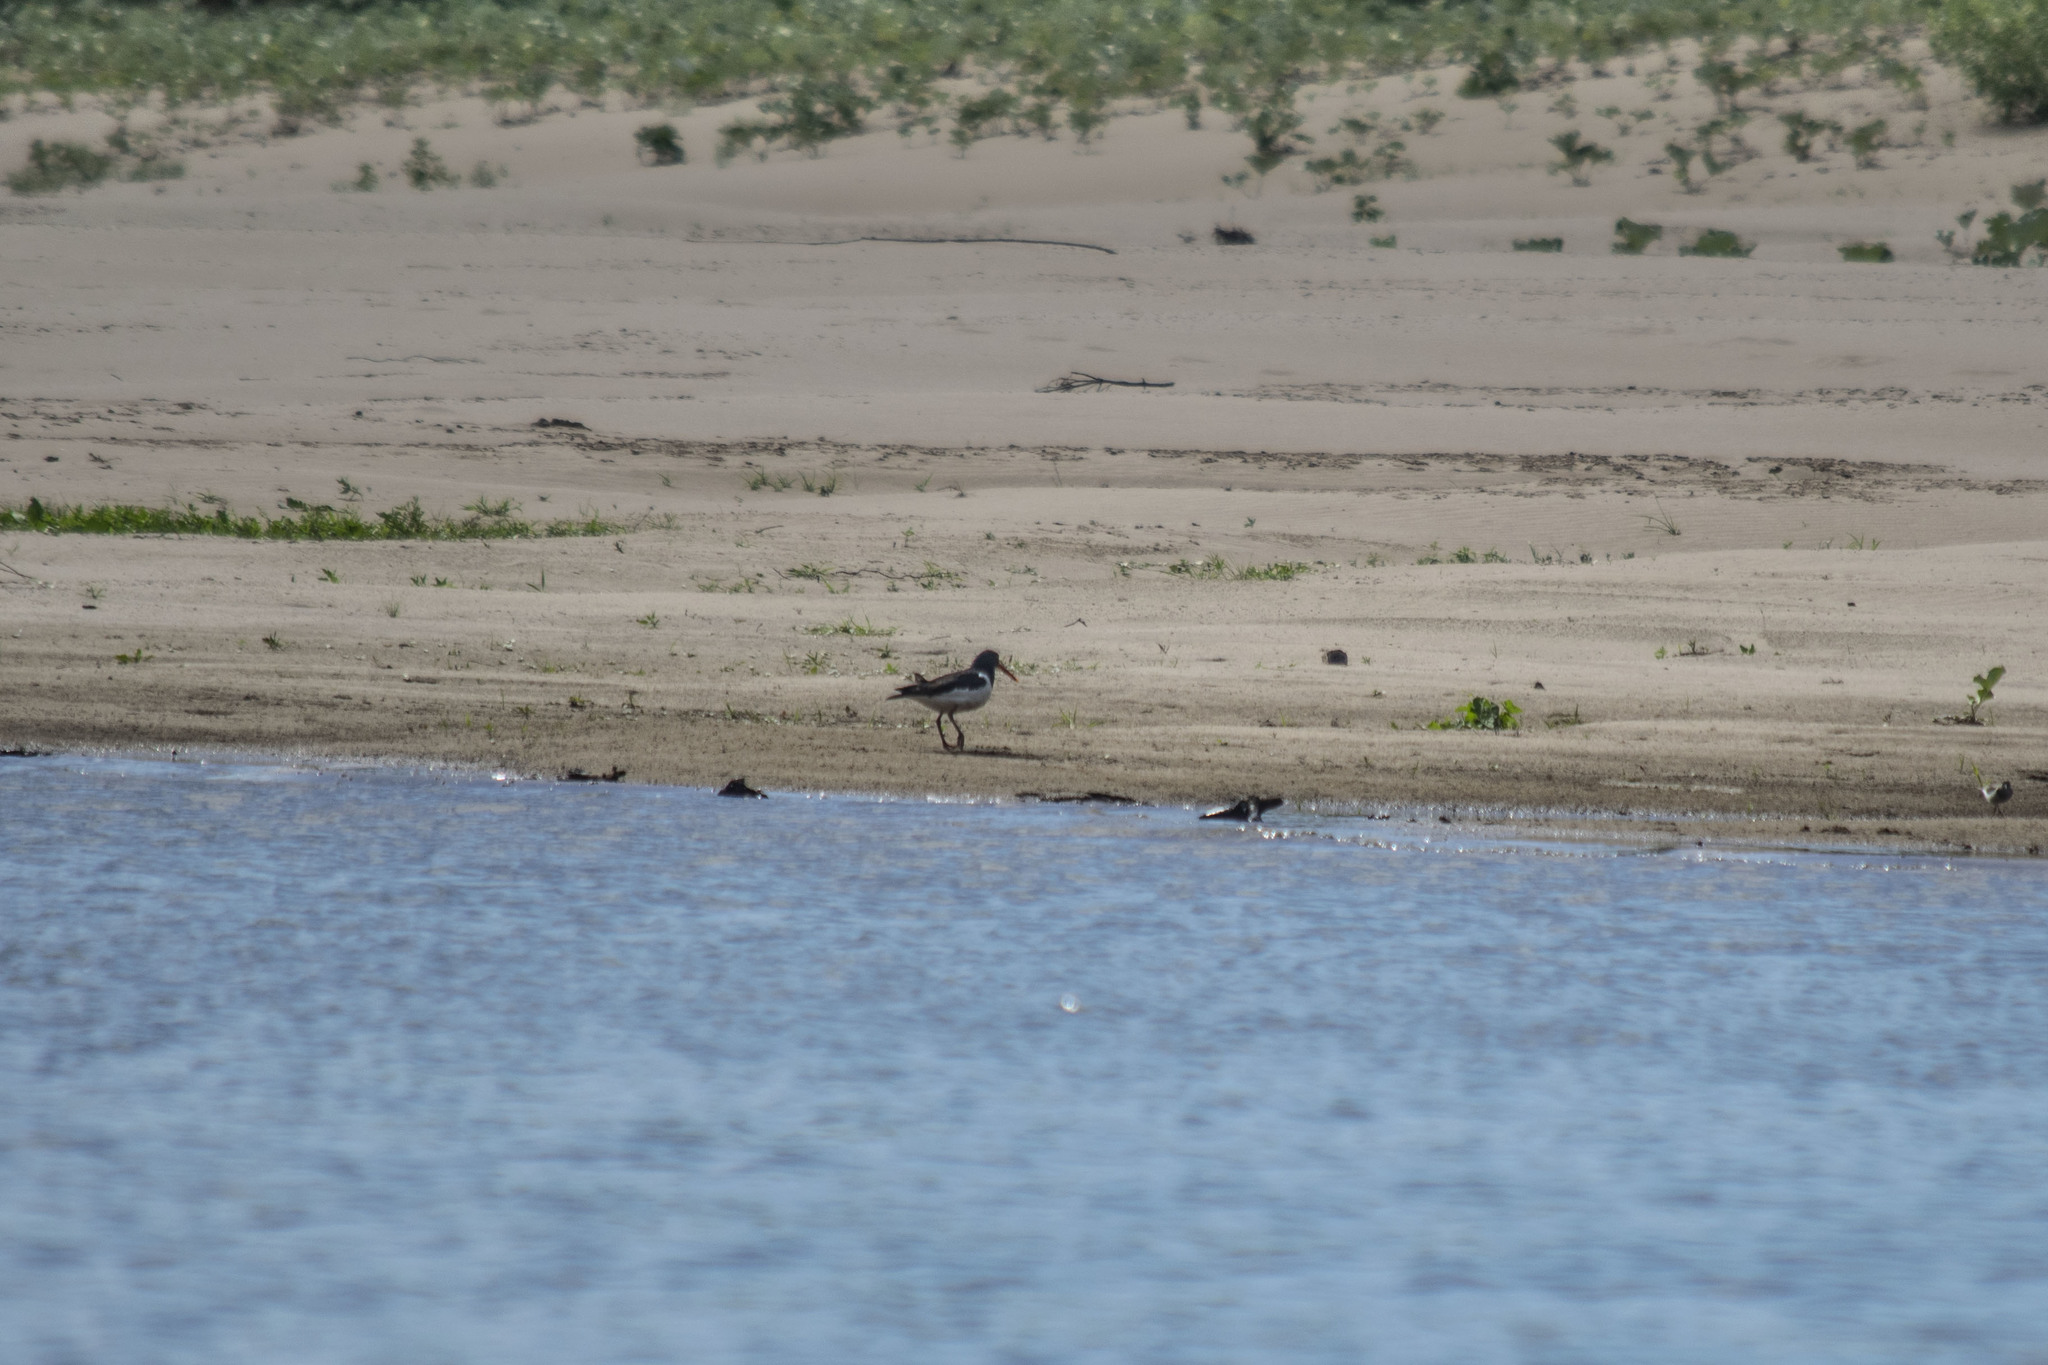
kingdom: Animalia
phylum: Chordata
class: Aves
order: Charadriiformes
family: Haematopodidae
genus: Haematopus
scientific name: Haematopus ostralegus
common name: Eurasian oystercatcher
